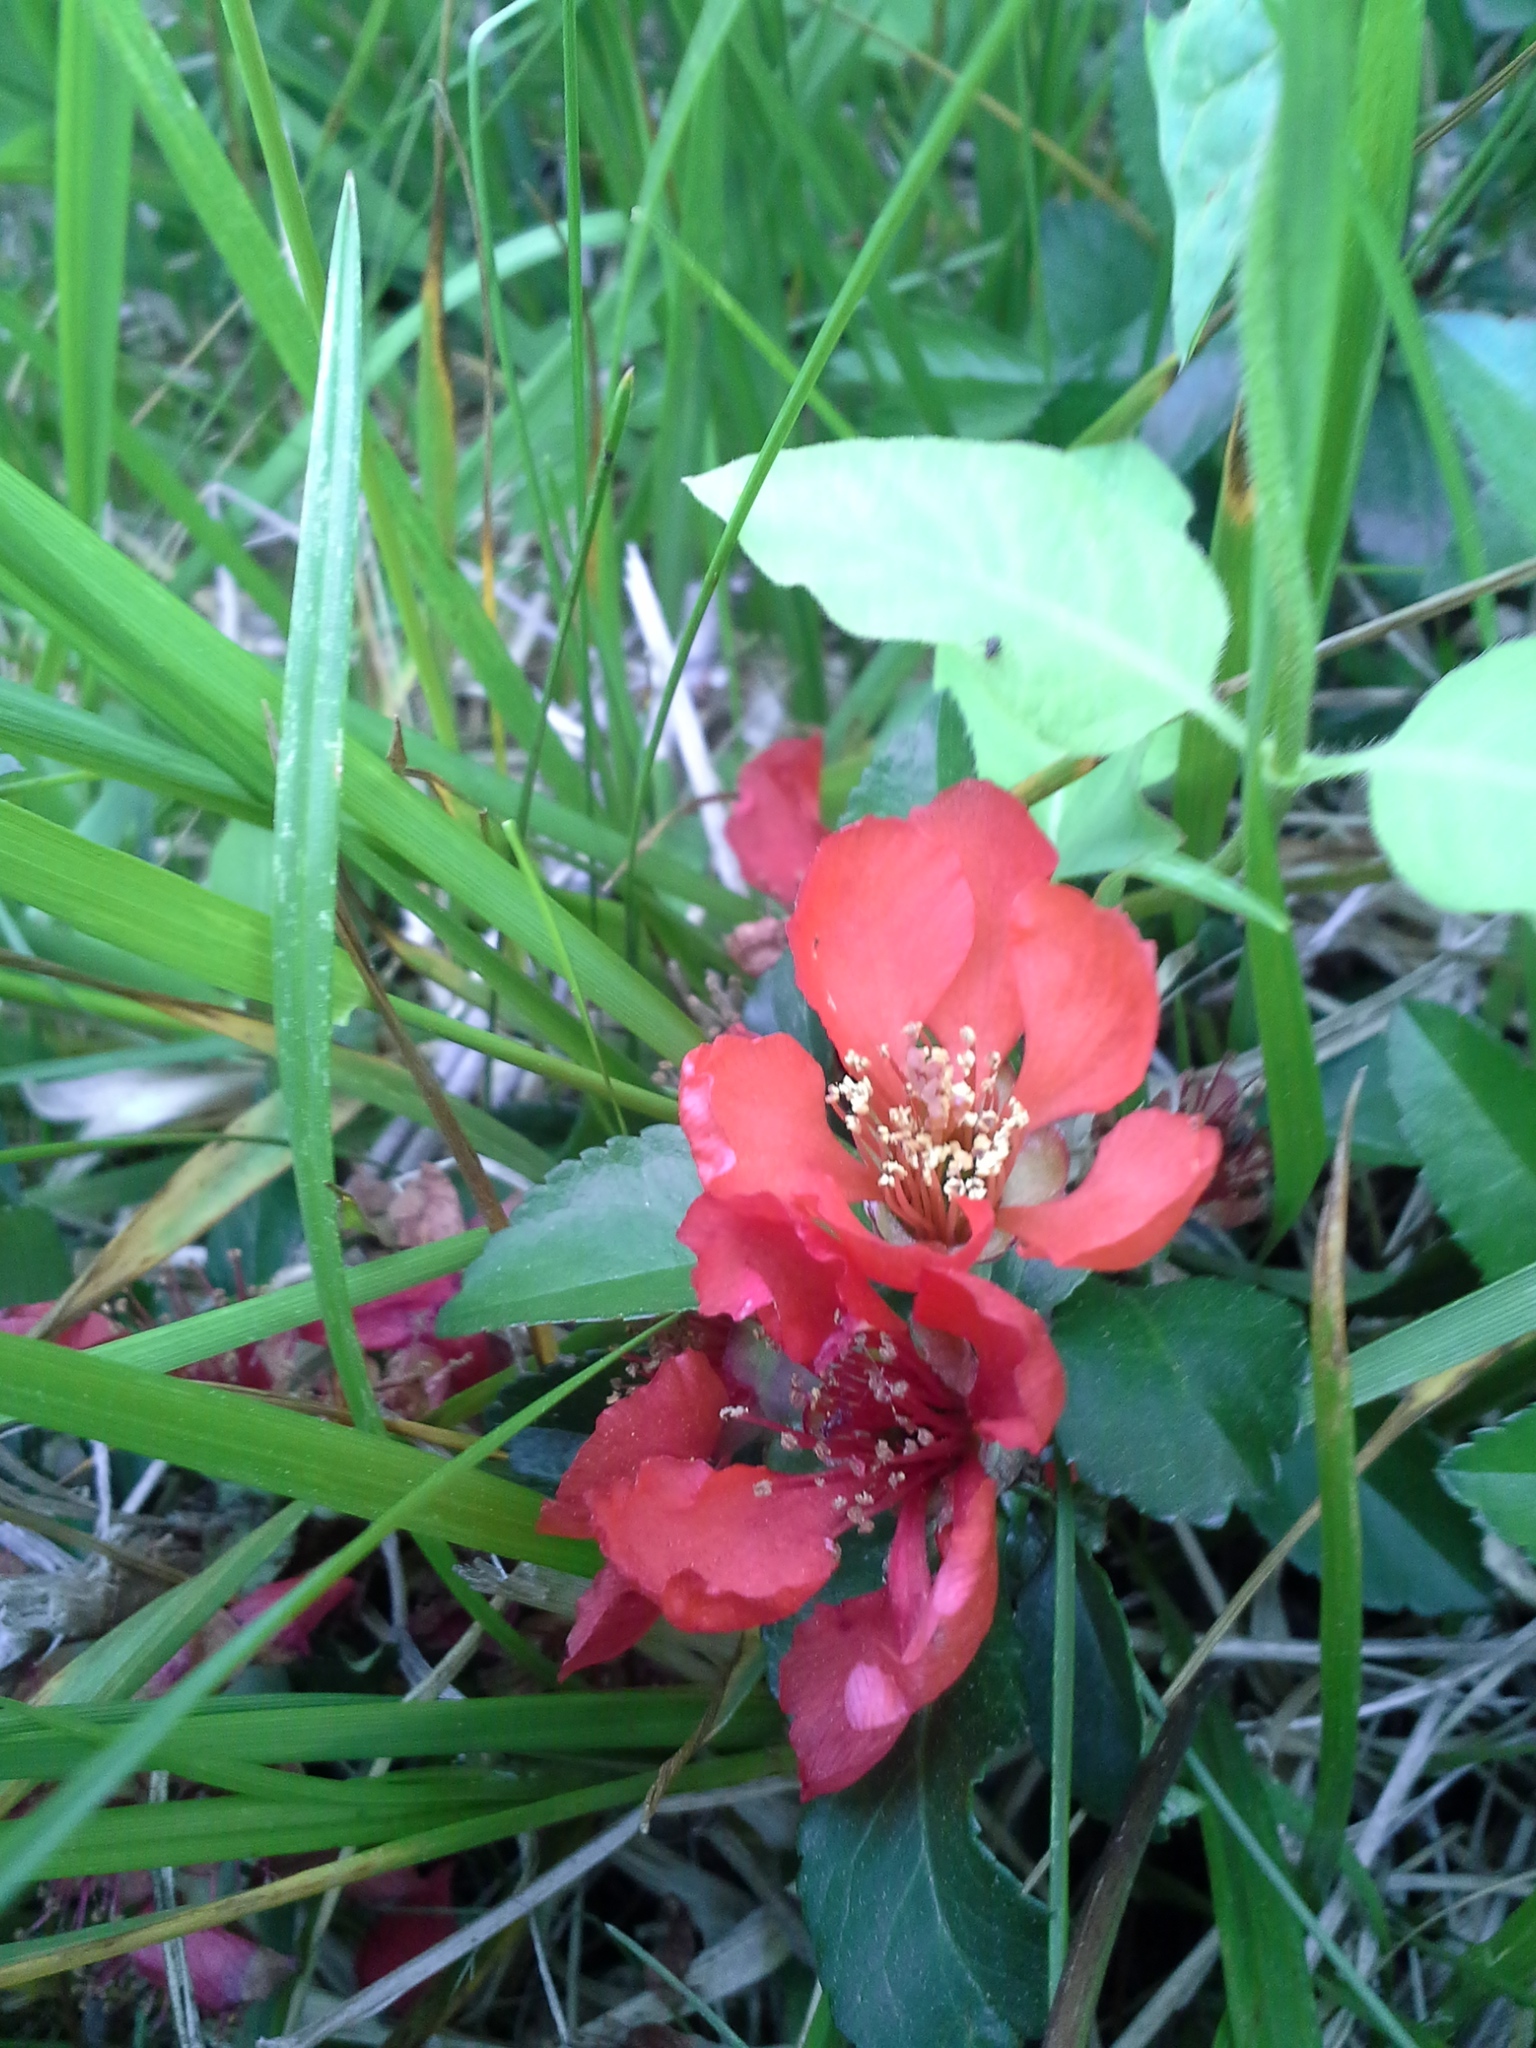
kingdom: Plantae
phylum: Tracheophyta
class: Magnoliopsida
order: Rosales
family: Rosaceae
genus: Chaenomeles
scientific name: Chaenomeles japonica
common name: Japanese quince
